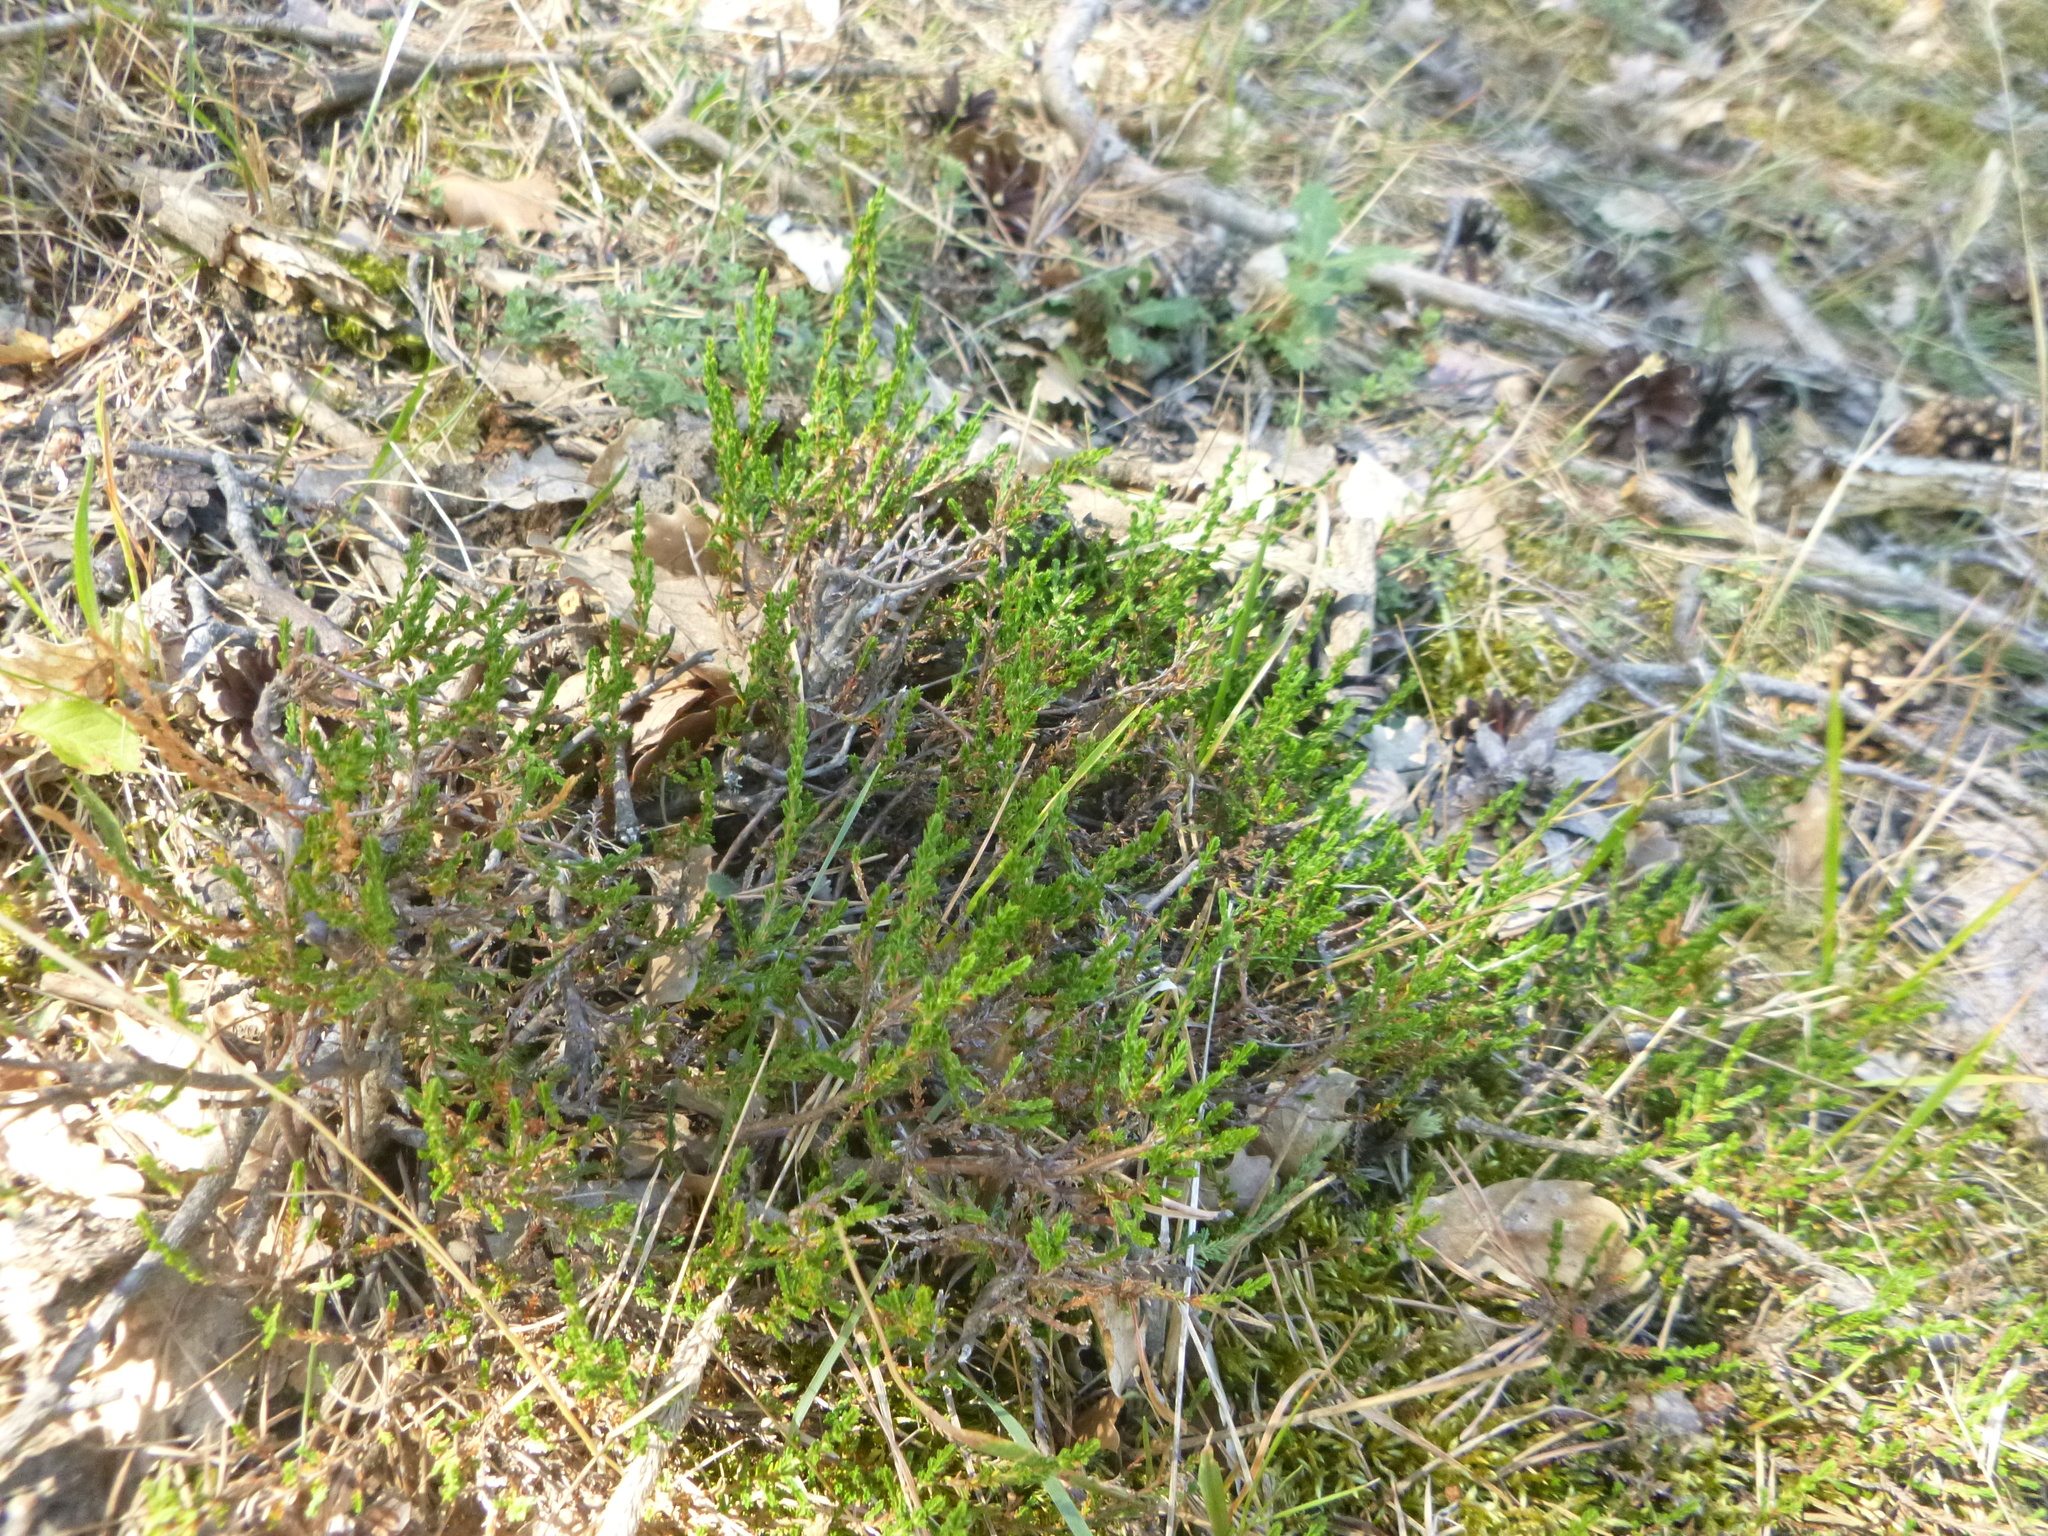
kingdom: Plantae
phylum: Tracheophyta
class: Magnoliopsida
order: Ericales
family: Ericaceae
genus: Calluna
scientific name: Calluna vulgaris
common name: Heather
